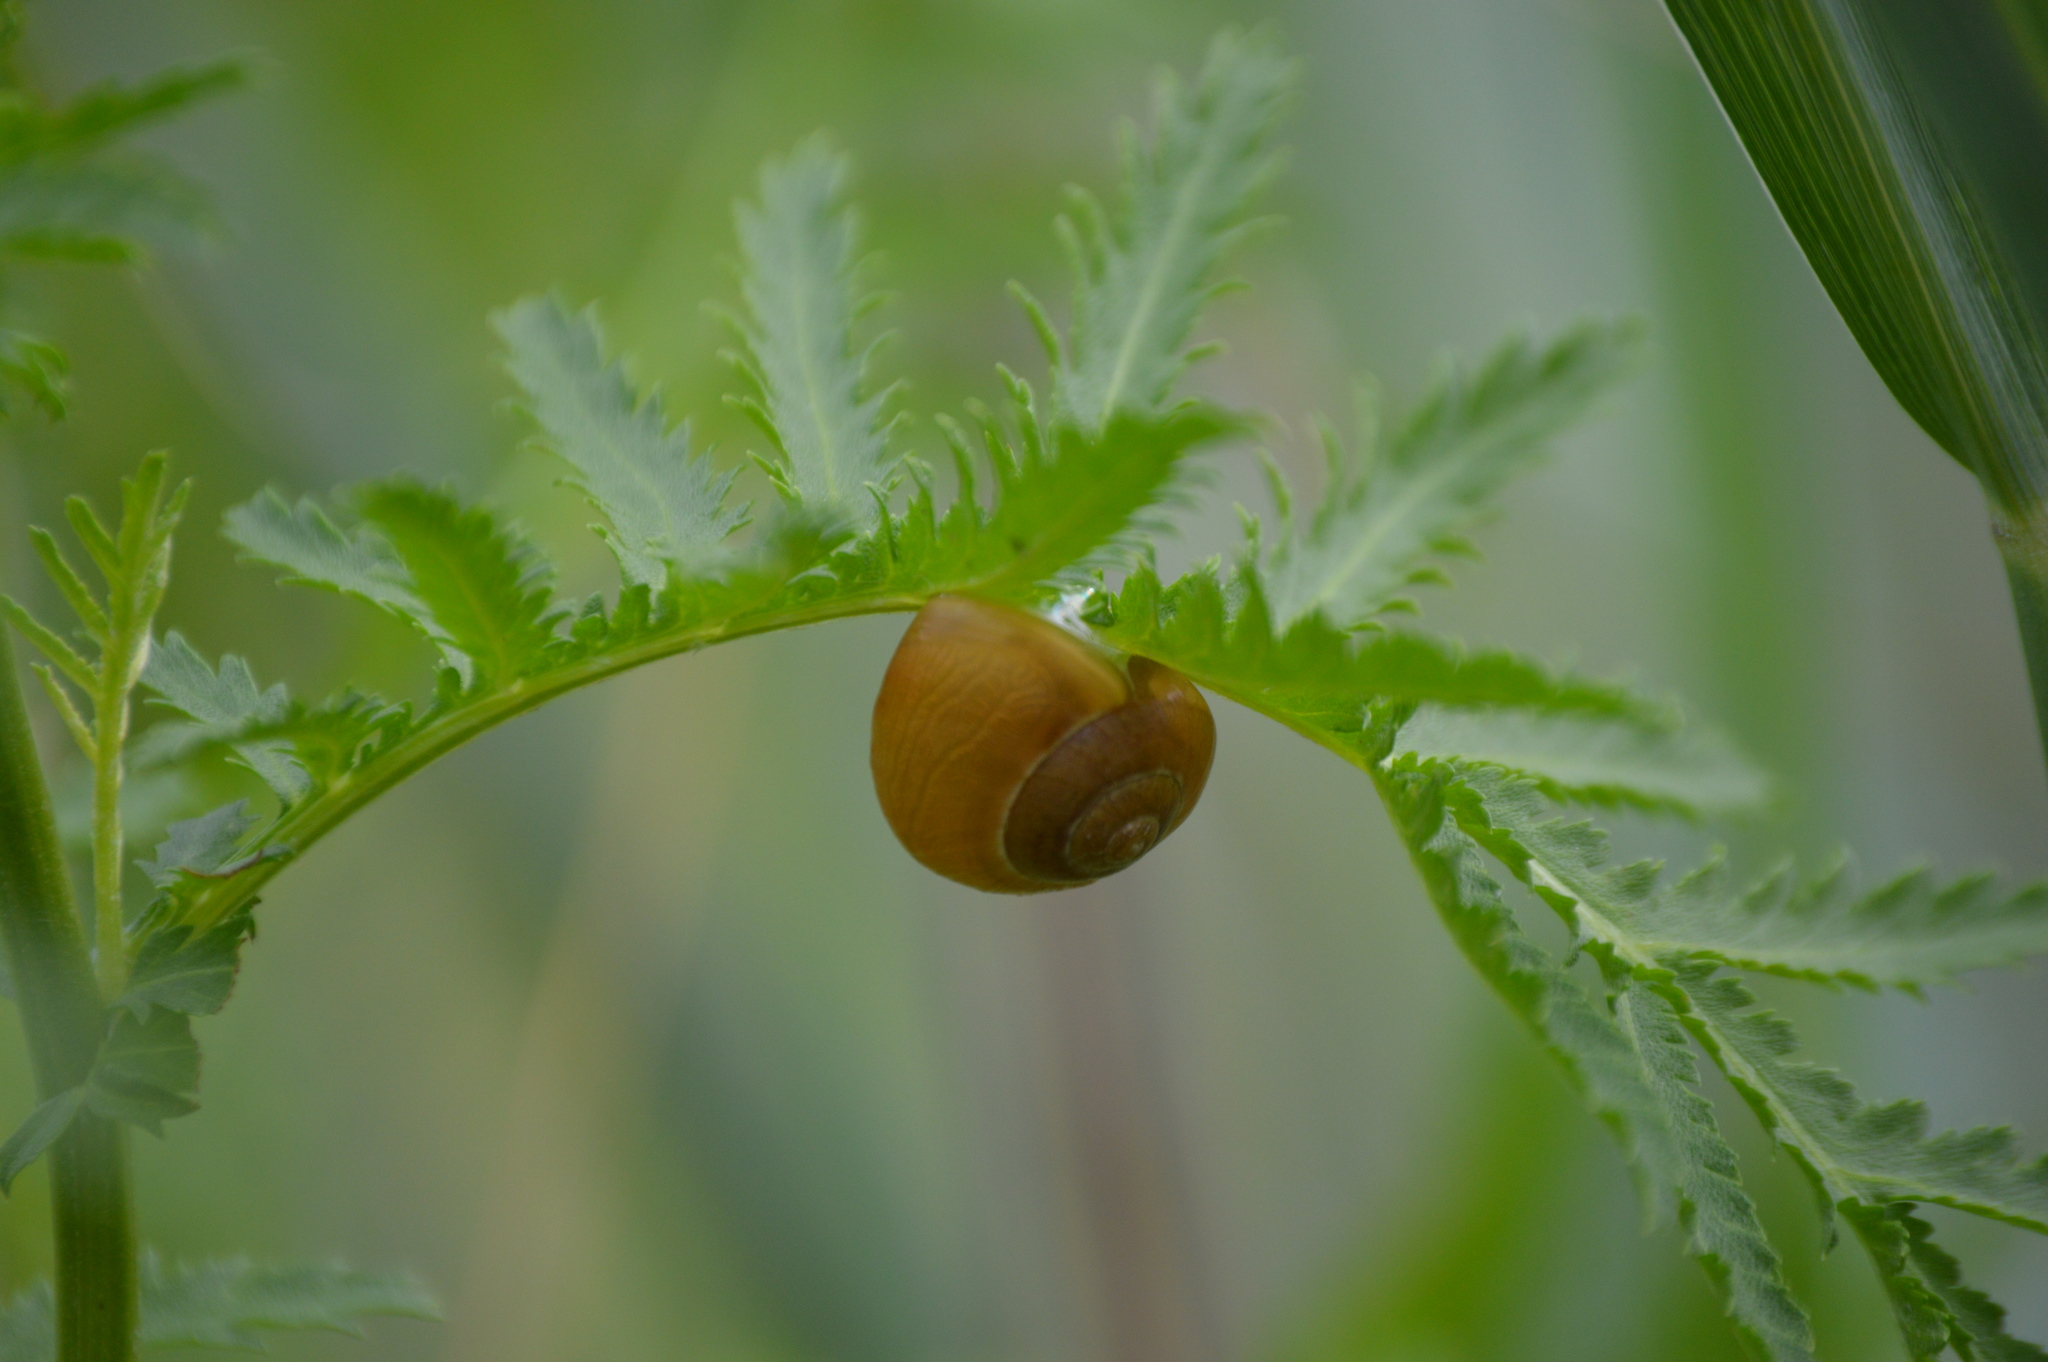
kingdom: Animalia
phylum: Mollusca
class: Gastropoda
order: Stylommatophora
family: Helicidae
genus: Cepaea
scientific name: Cepaea
